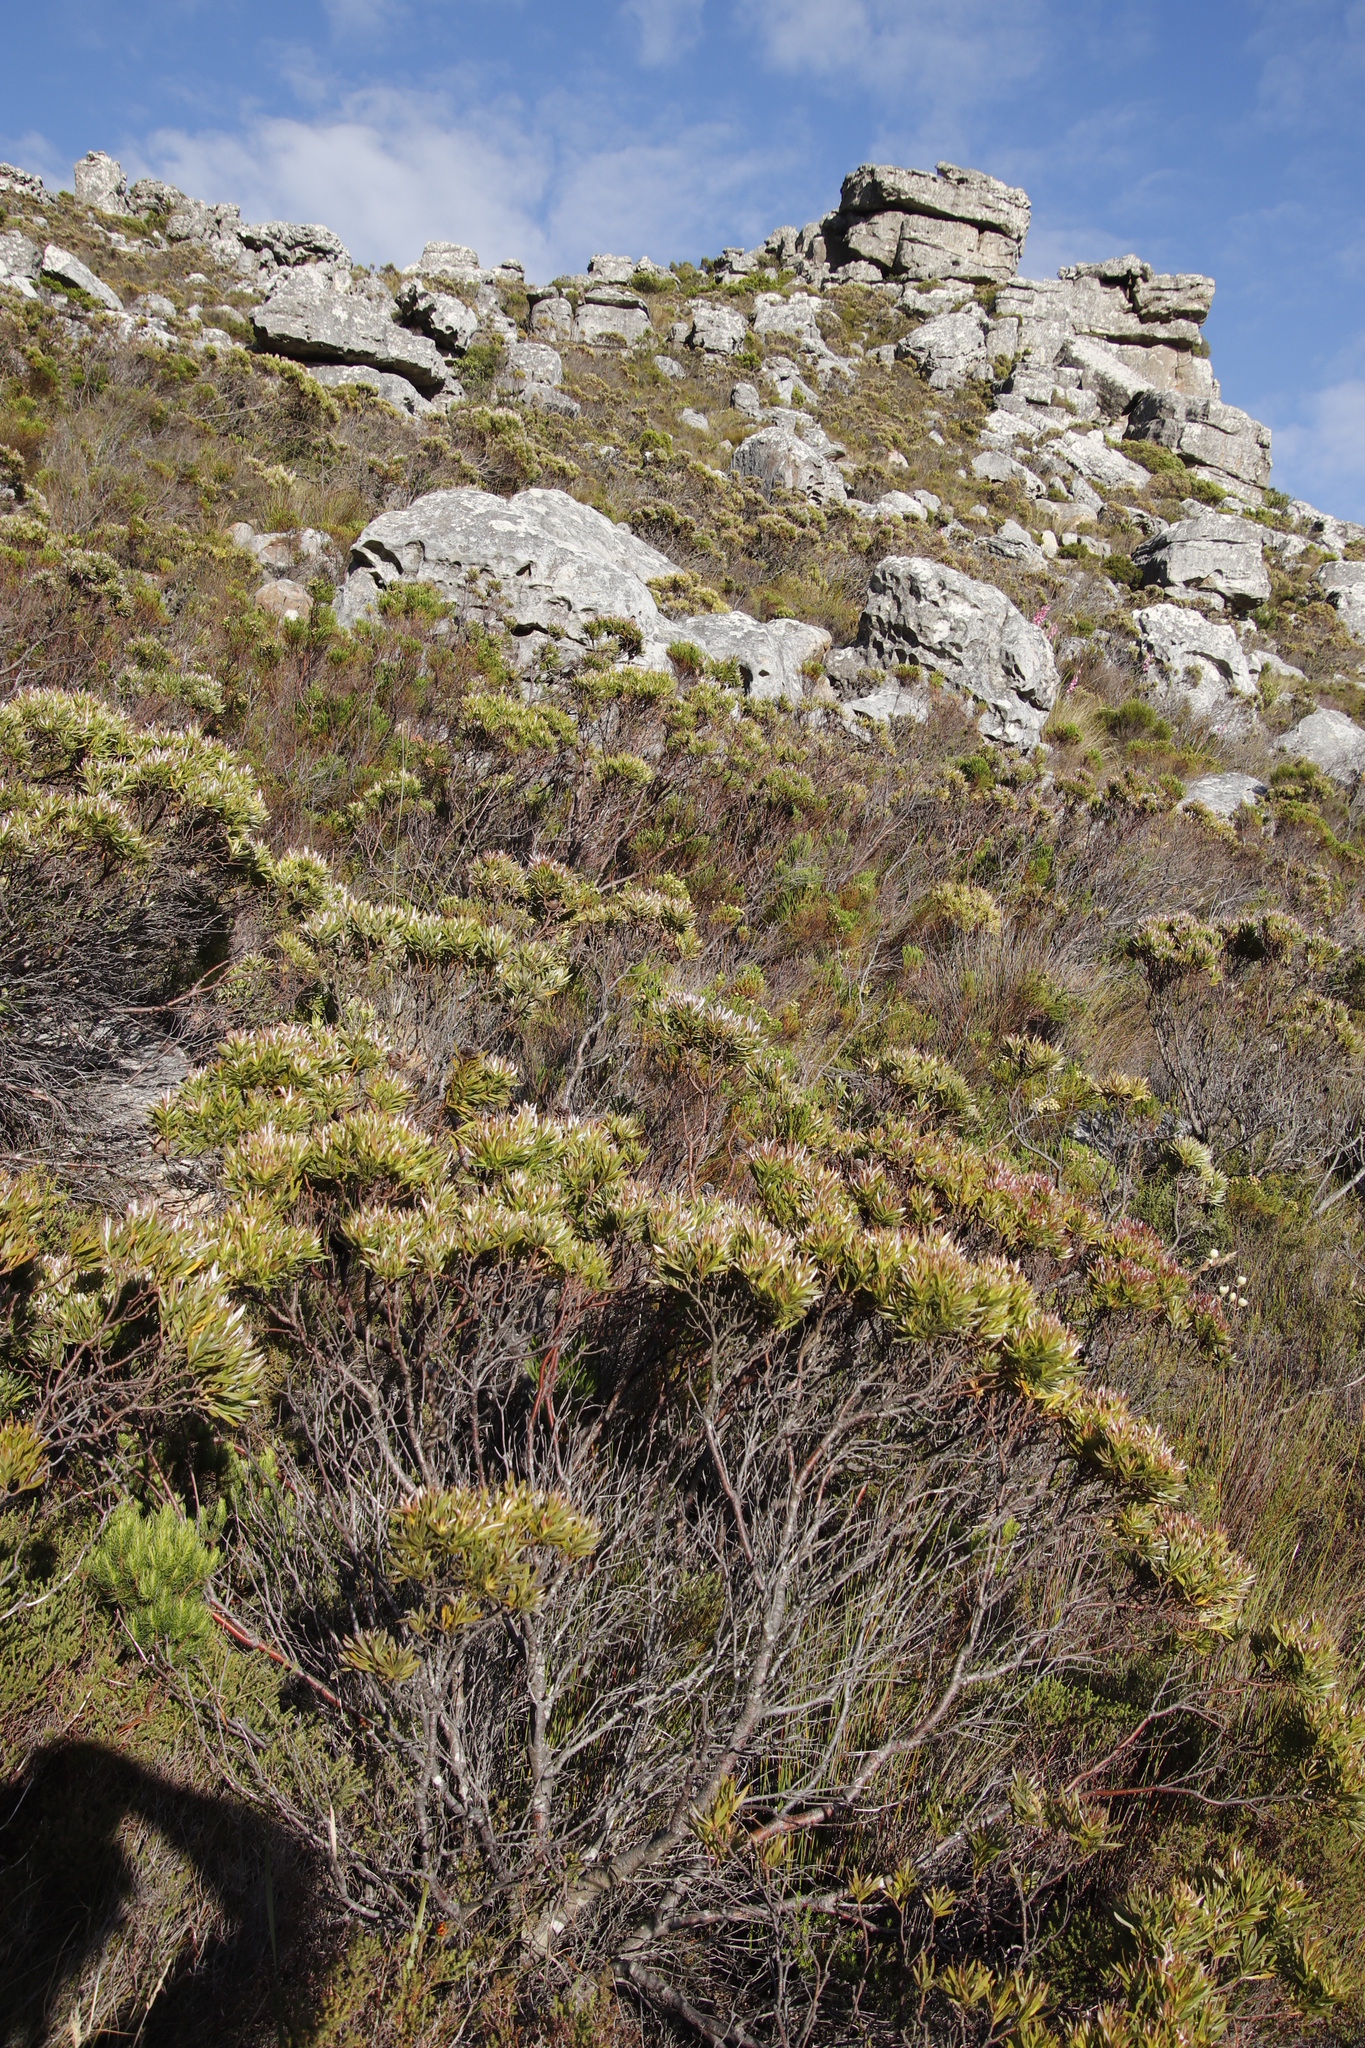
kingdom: Plantae
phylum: Tracheophyta
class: Magnoliopsida
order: Proteales
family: Proteaceae
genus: Leucadendron
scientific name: Leucadendron xanthoconus
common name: Sickle-leaf conebush
